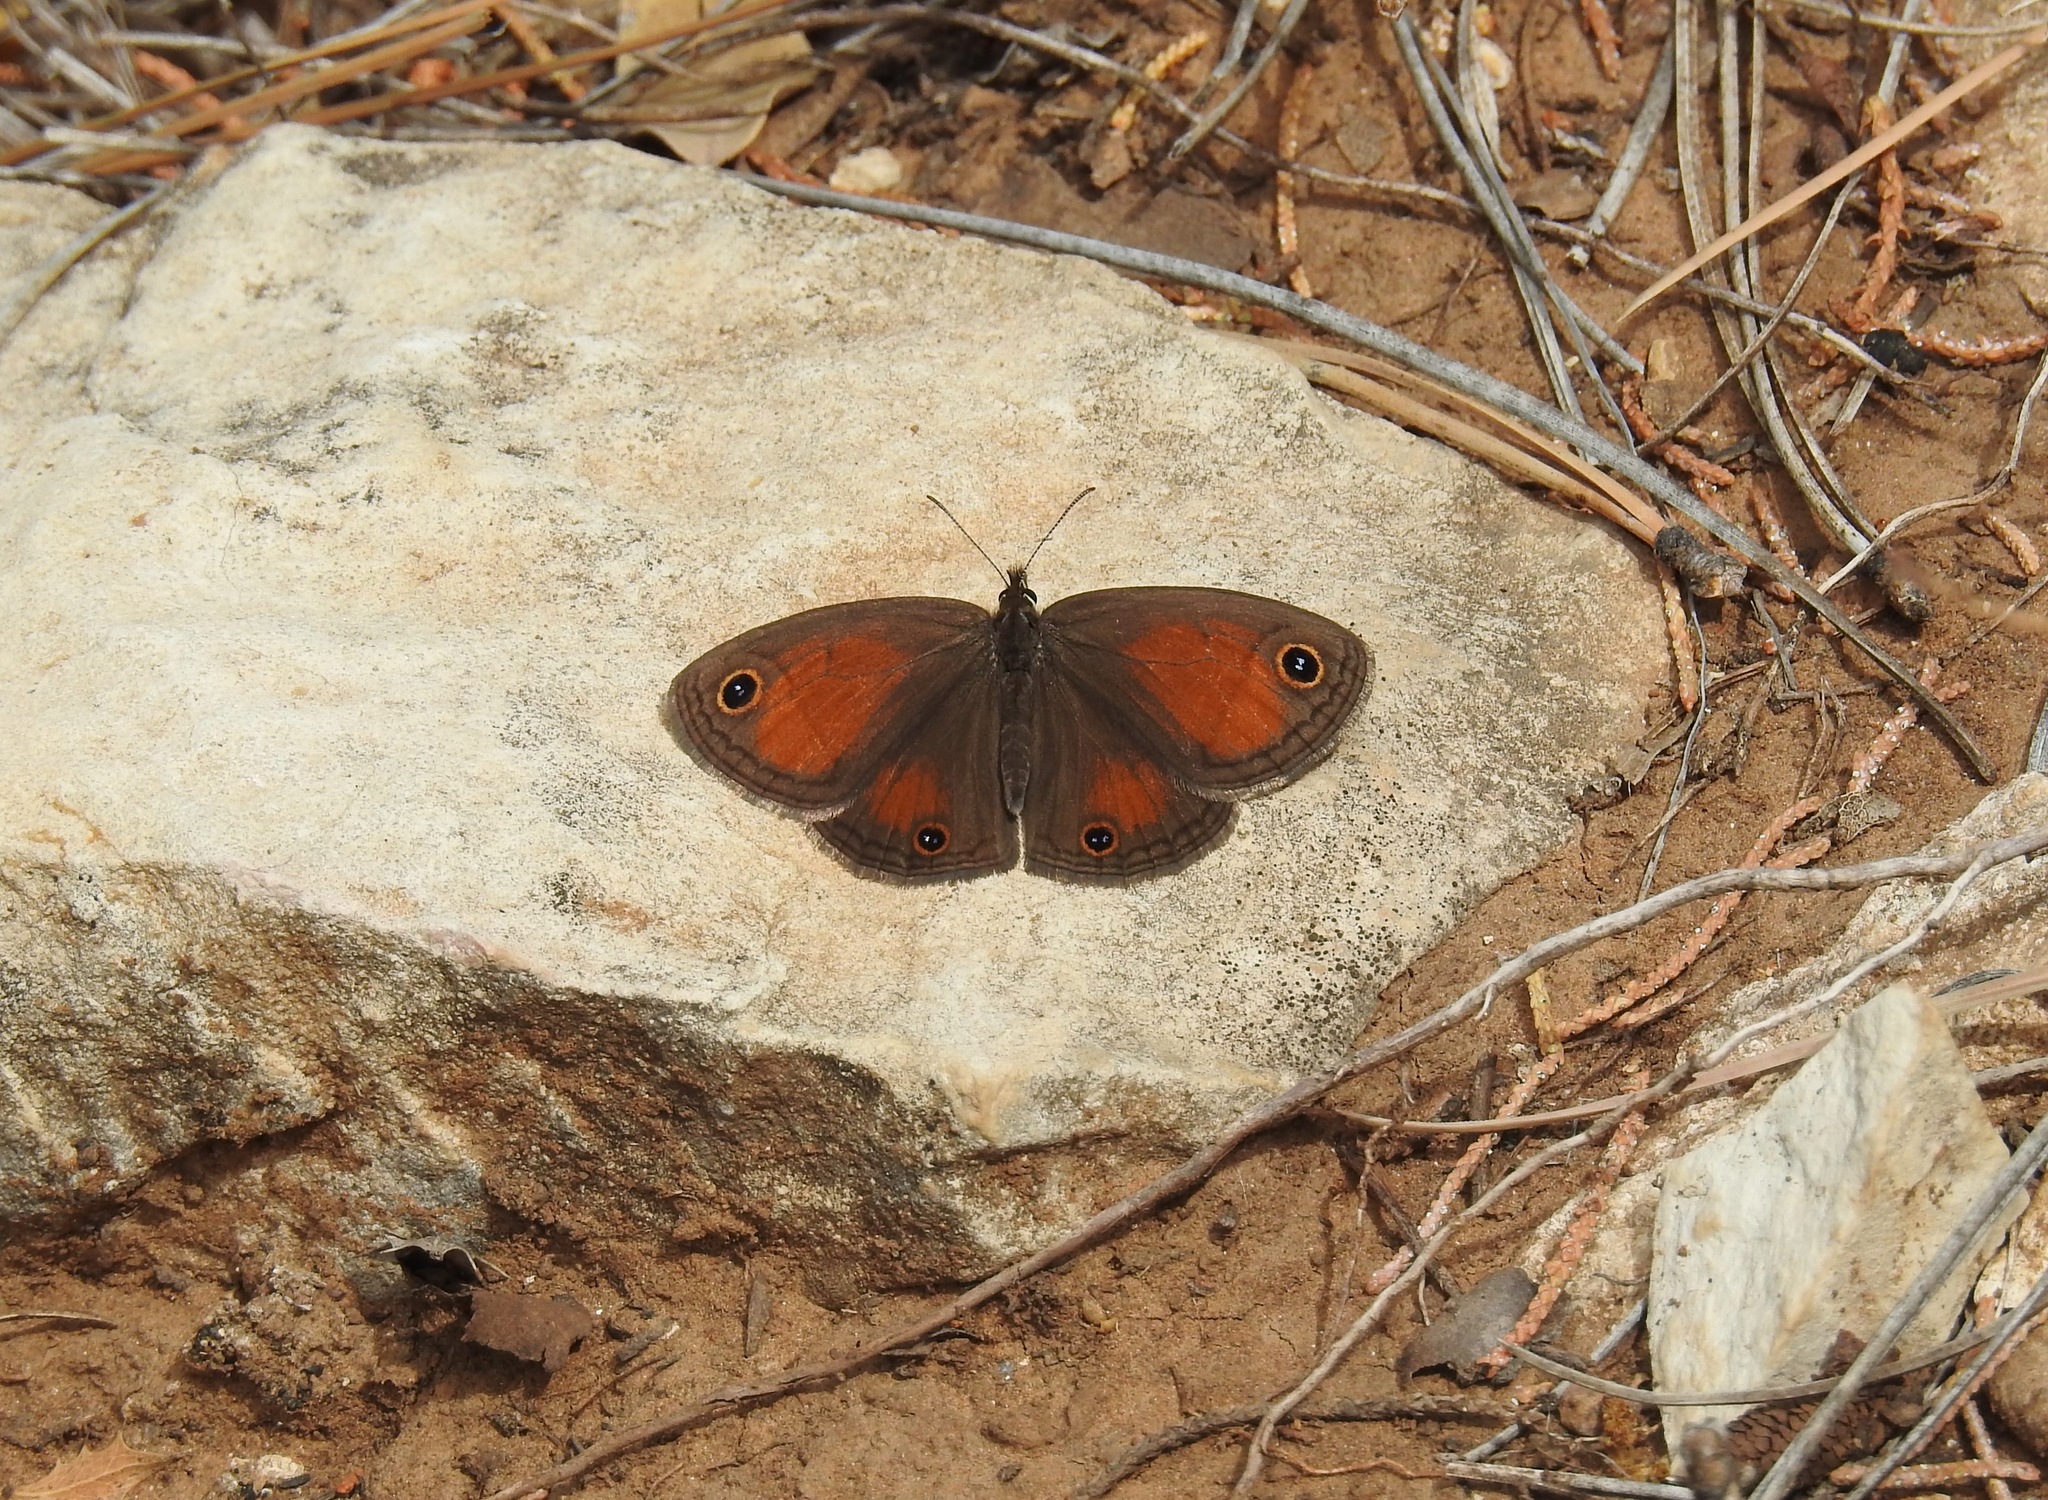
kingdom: Animalia
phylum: Arthropoda
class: Insecta
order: Lepidoptera
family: Nymphalidae
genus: Euptychia
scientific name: Euptychia Cissia rubricata
